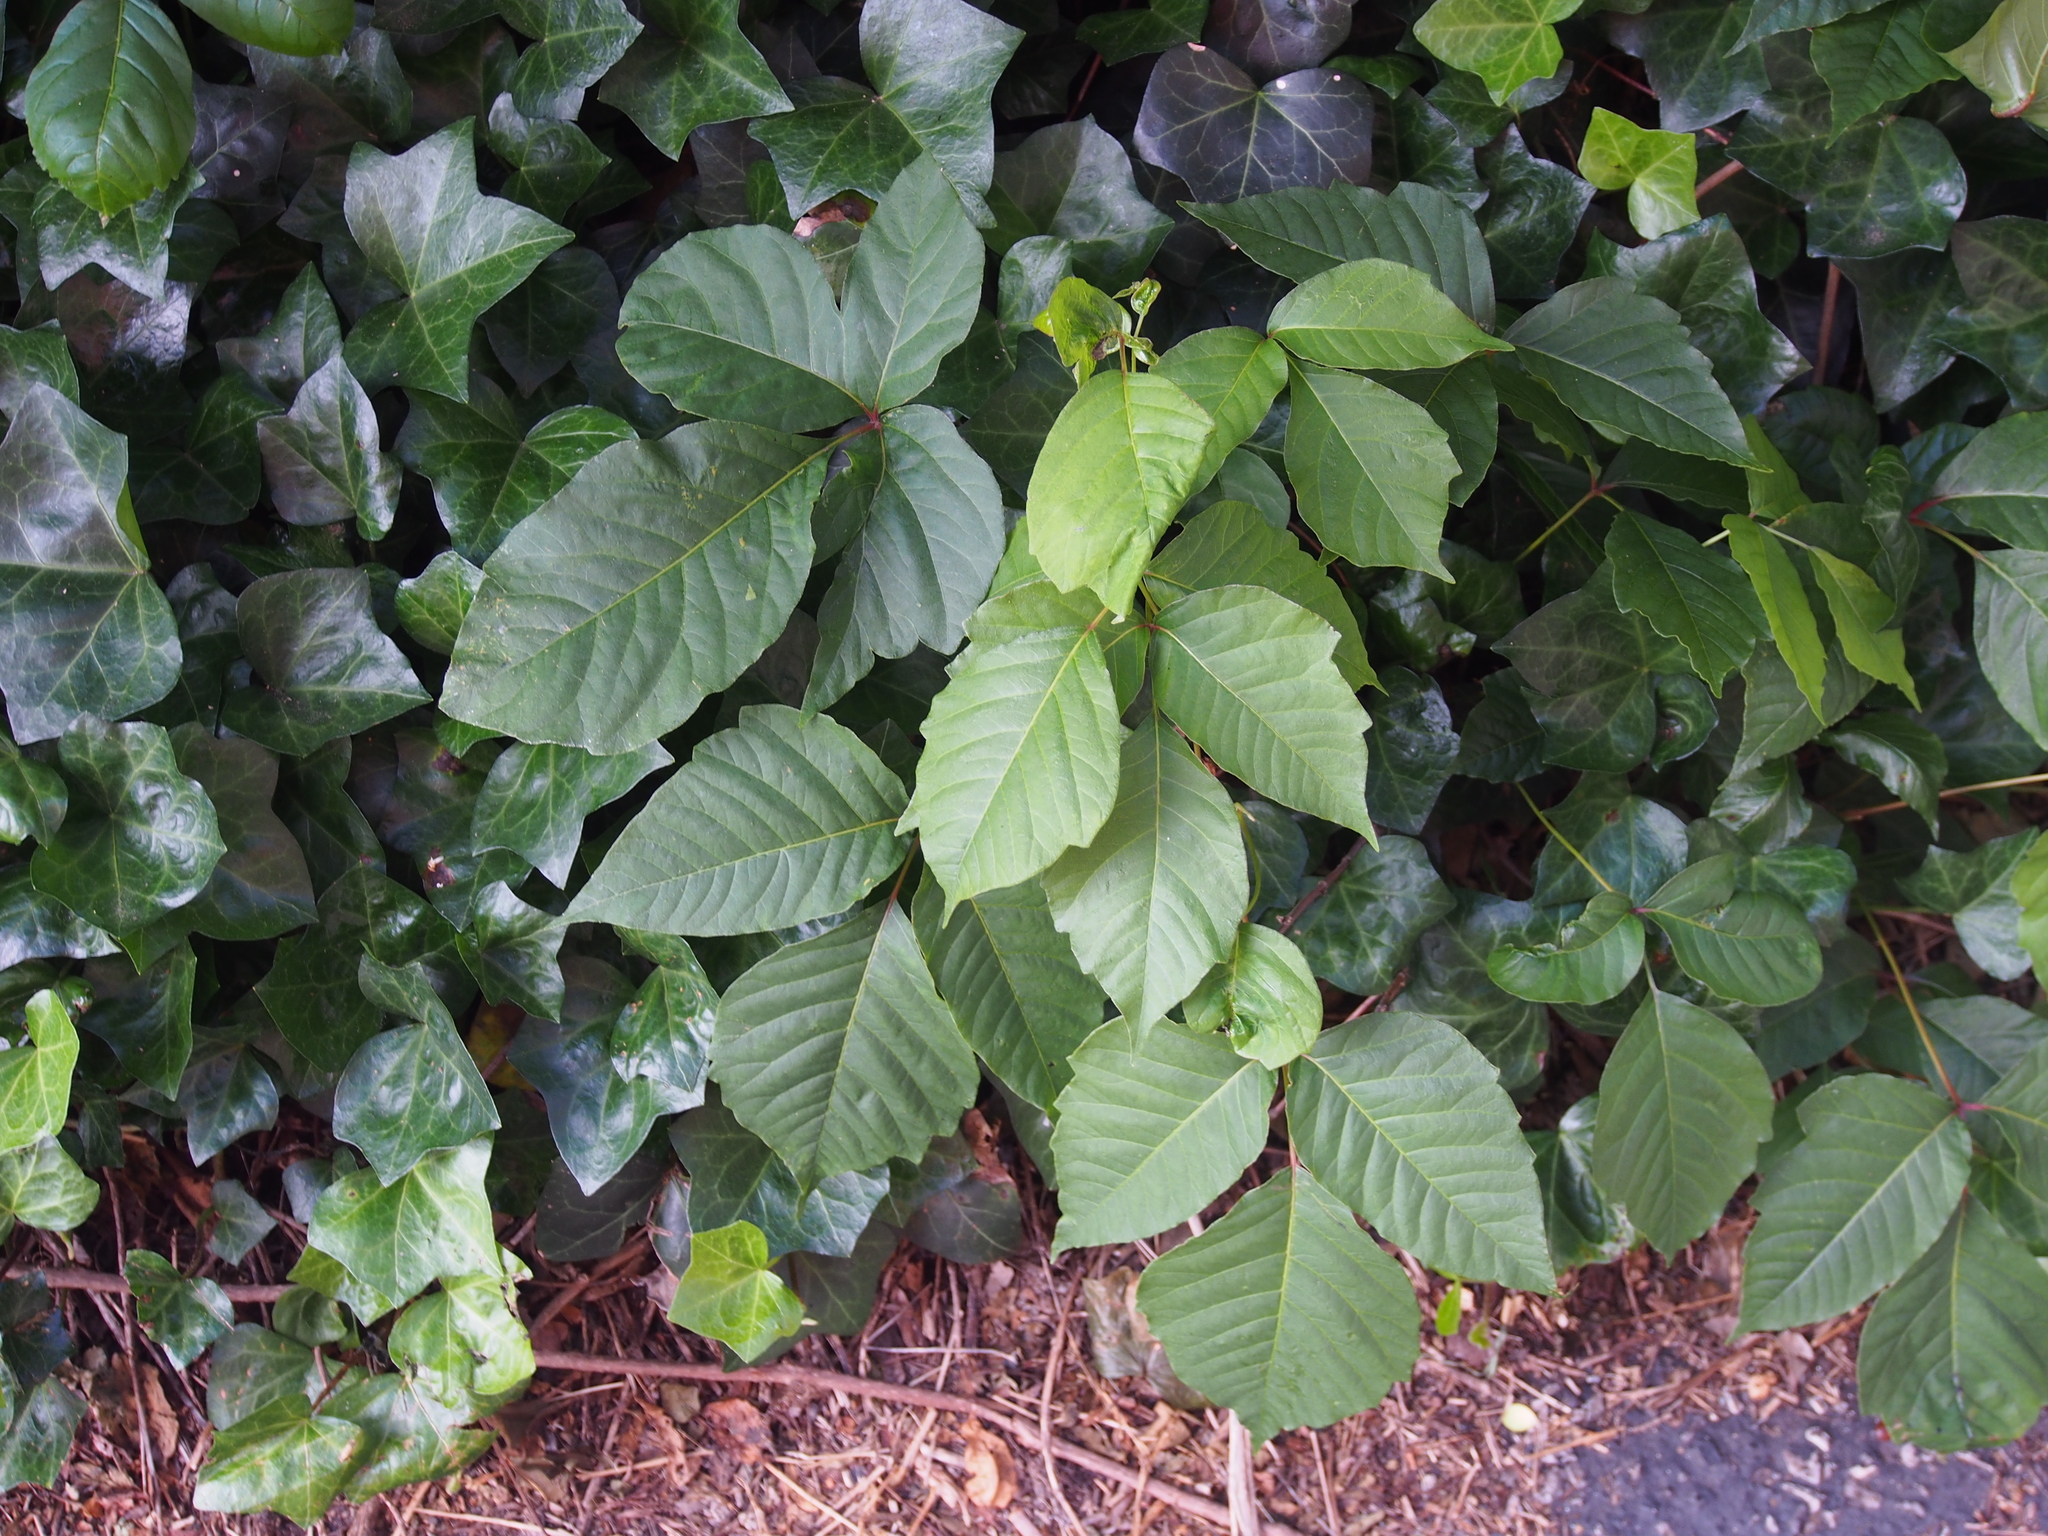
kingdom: Plantae
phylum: Tracheophyta
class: Magnoliopsida
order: Sapindales
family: Anacardiaceae
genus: Toxicodendron
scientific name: Toxicodendron radicans
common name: Poison ivy
